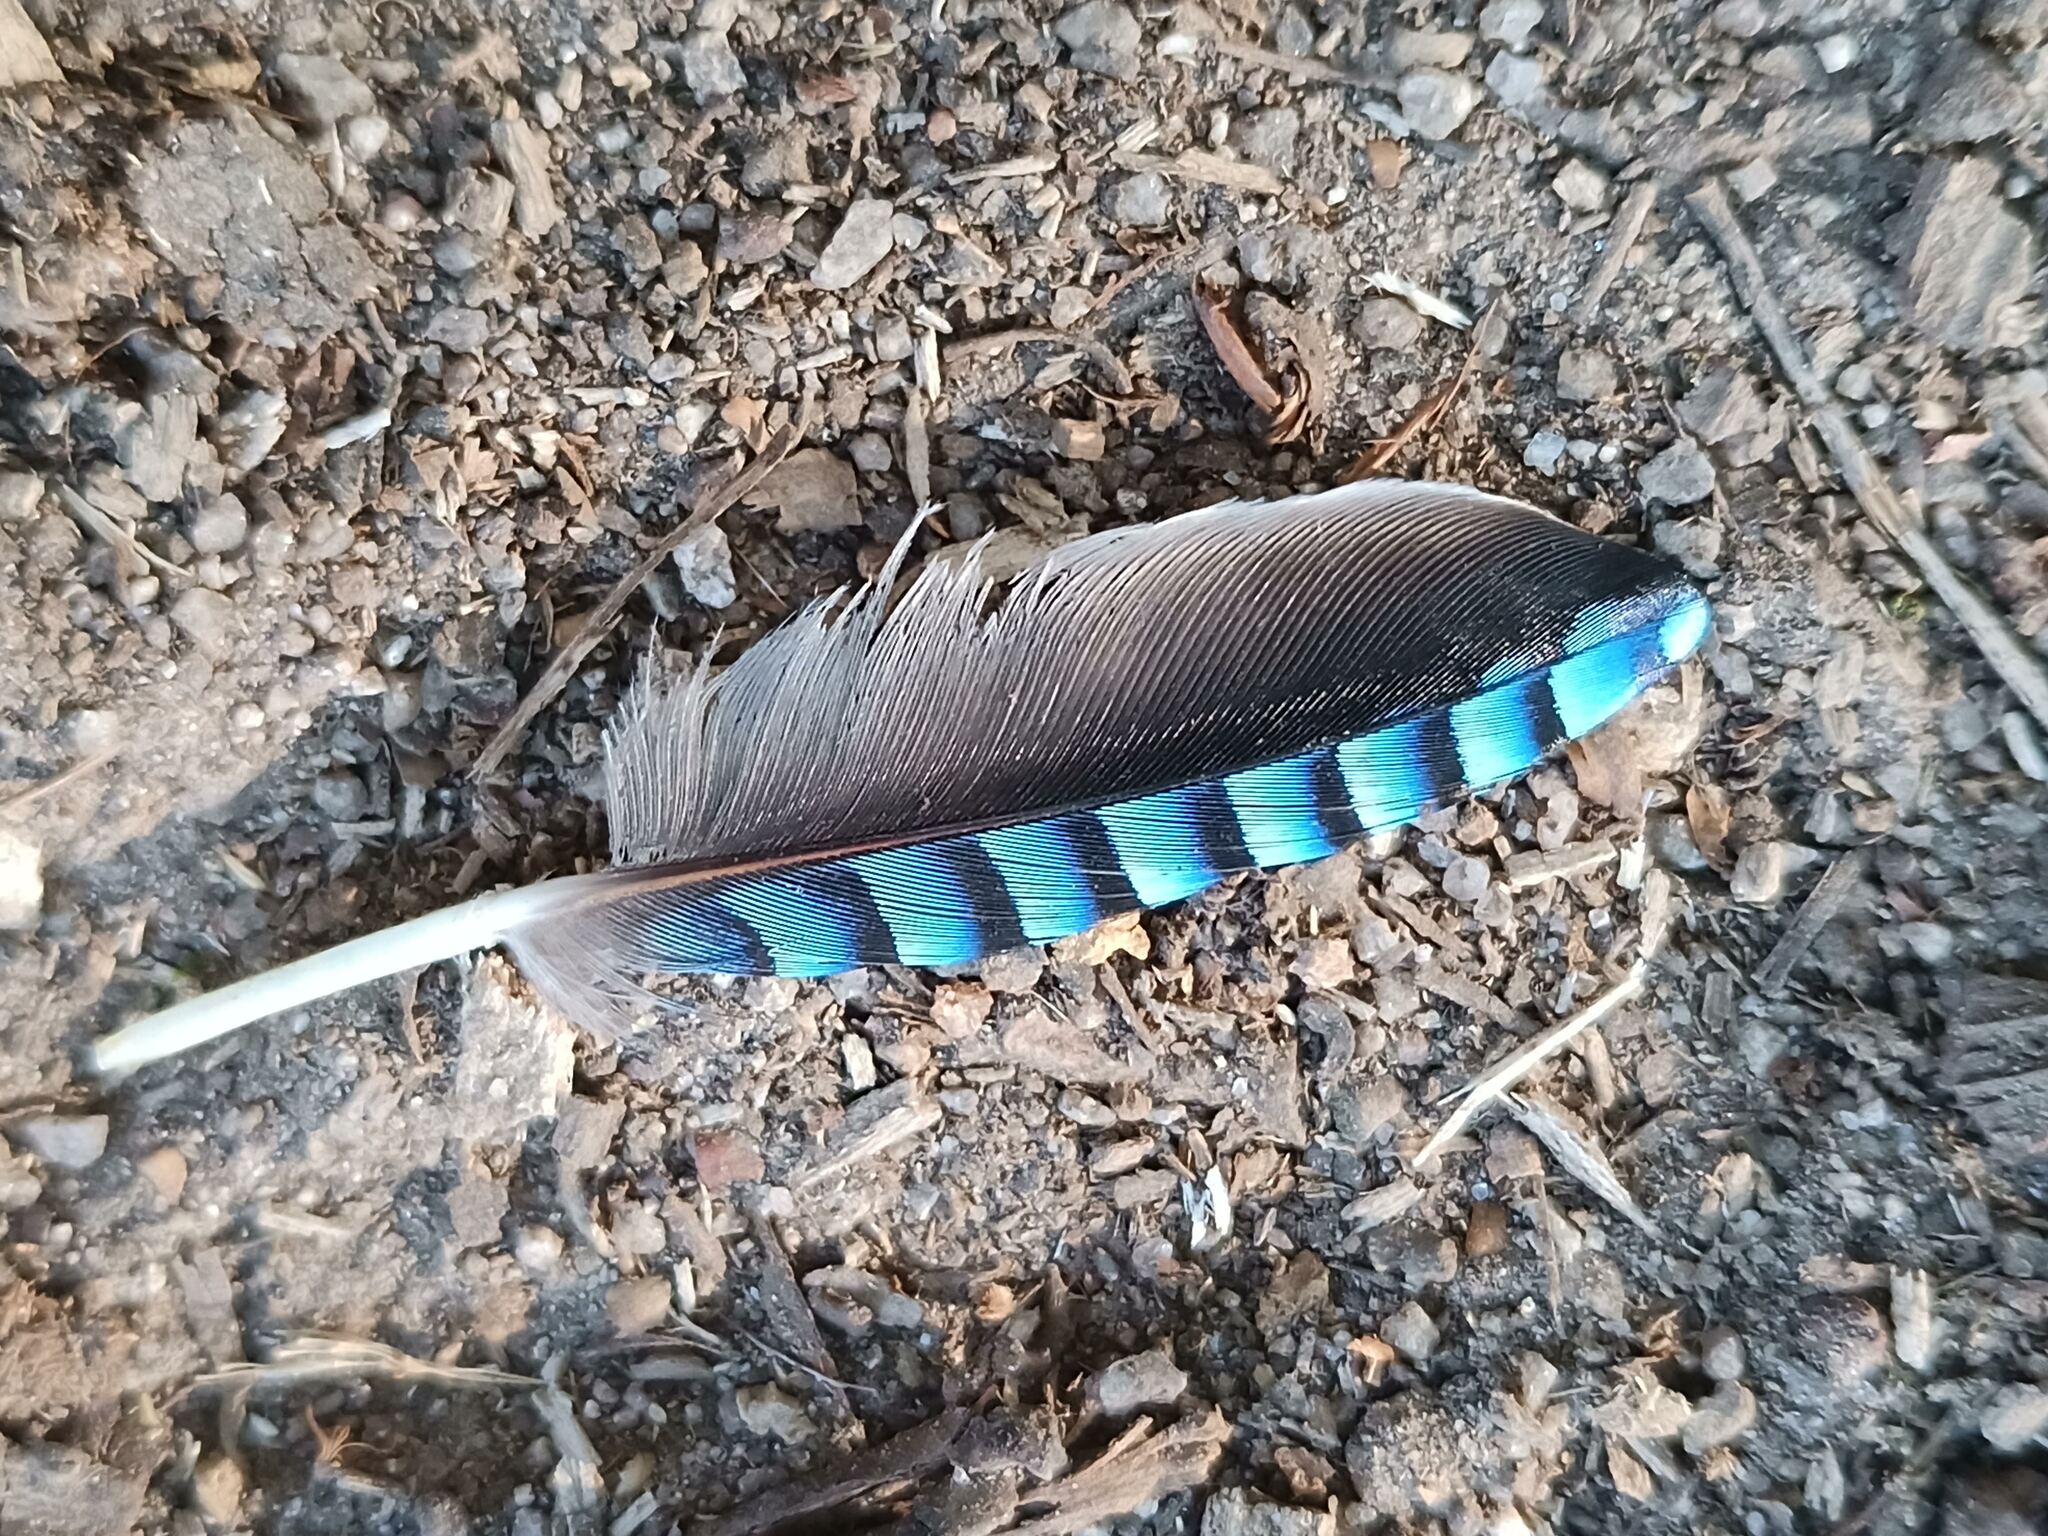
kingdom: Animalia
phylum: Chordata
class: Aves
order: Passeriformes
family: Corvidae
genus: Garrulus
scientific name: Garrulus glandarius
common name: Eurasian jay
